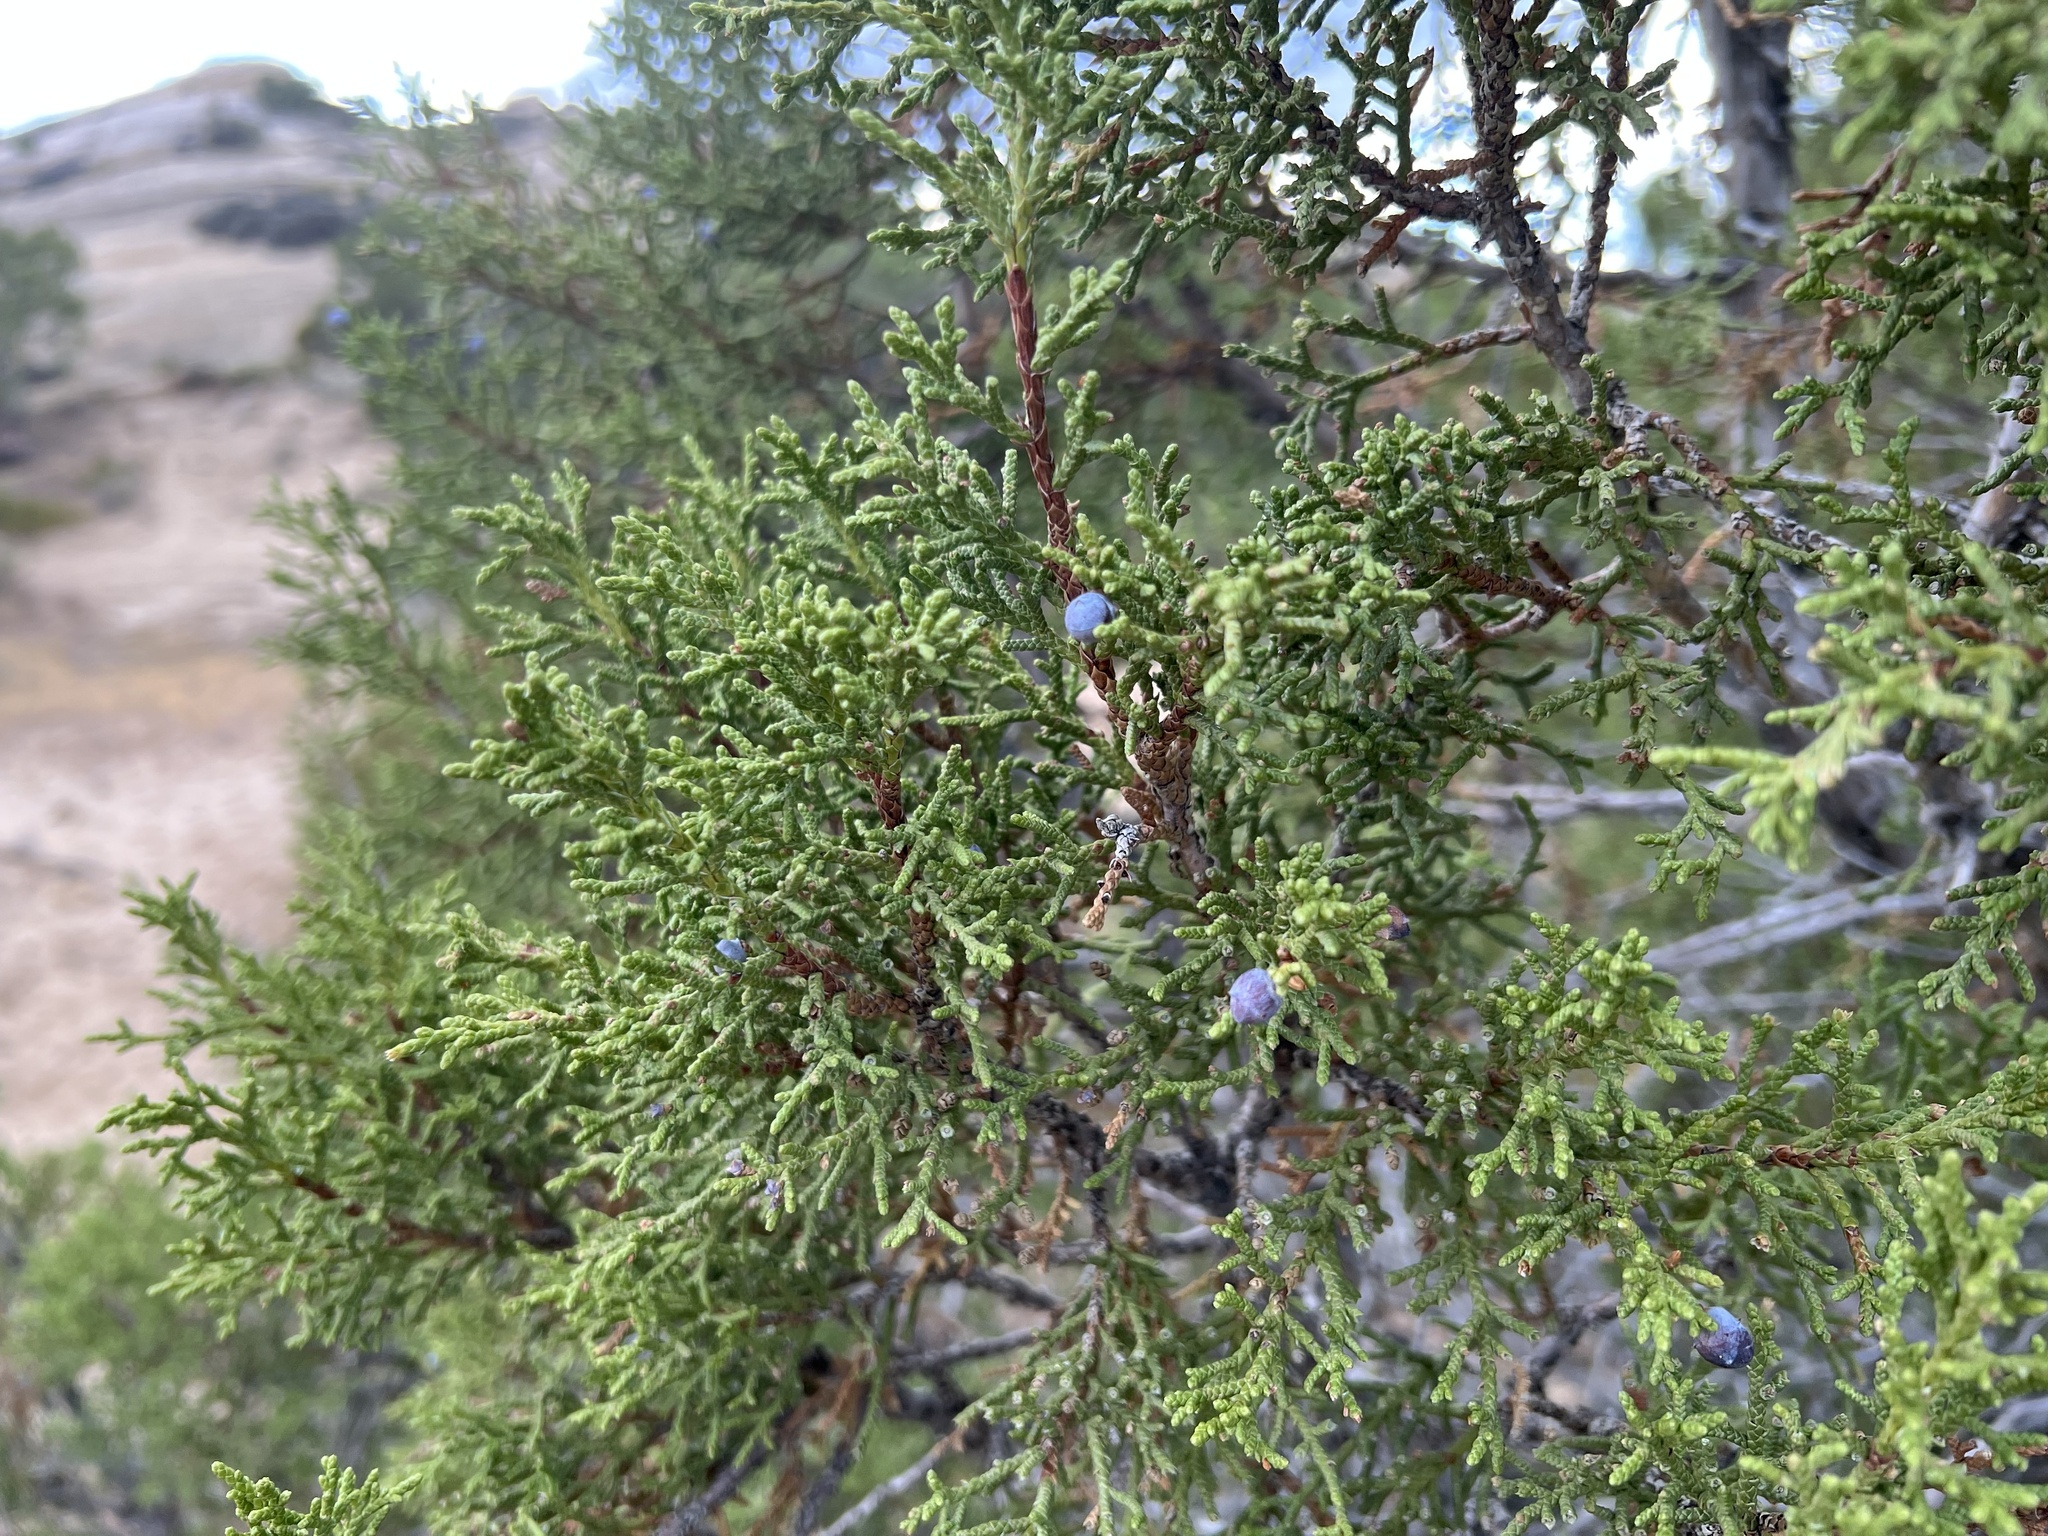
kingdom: Plantae
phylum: Tracheophyta
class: Pinopsida
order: Pinales
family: Cupressaceae
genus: Juniperus
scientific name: Juniperus osteosperma
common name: Utah juniper
